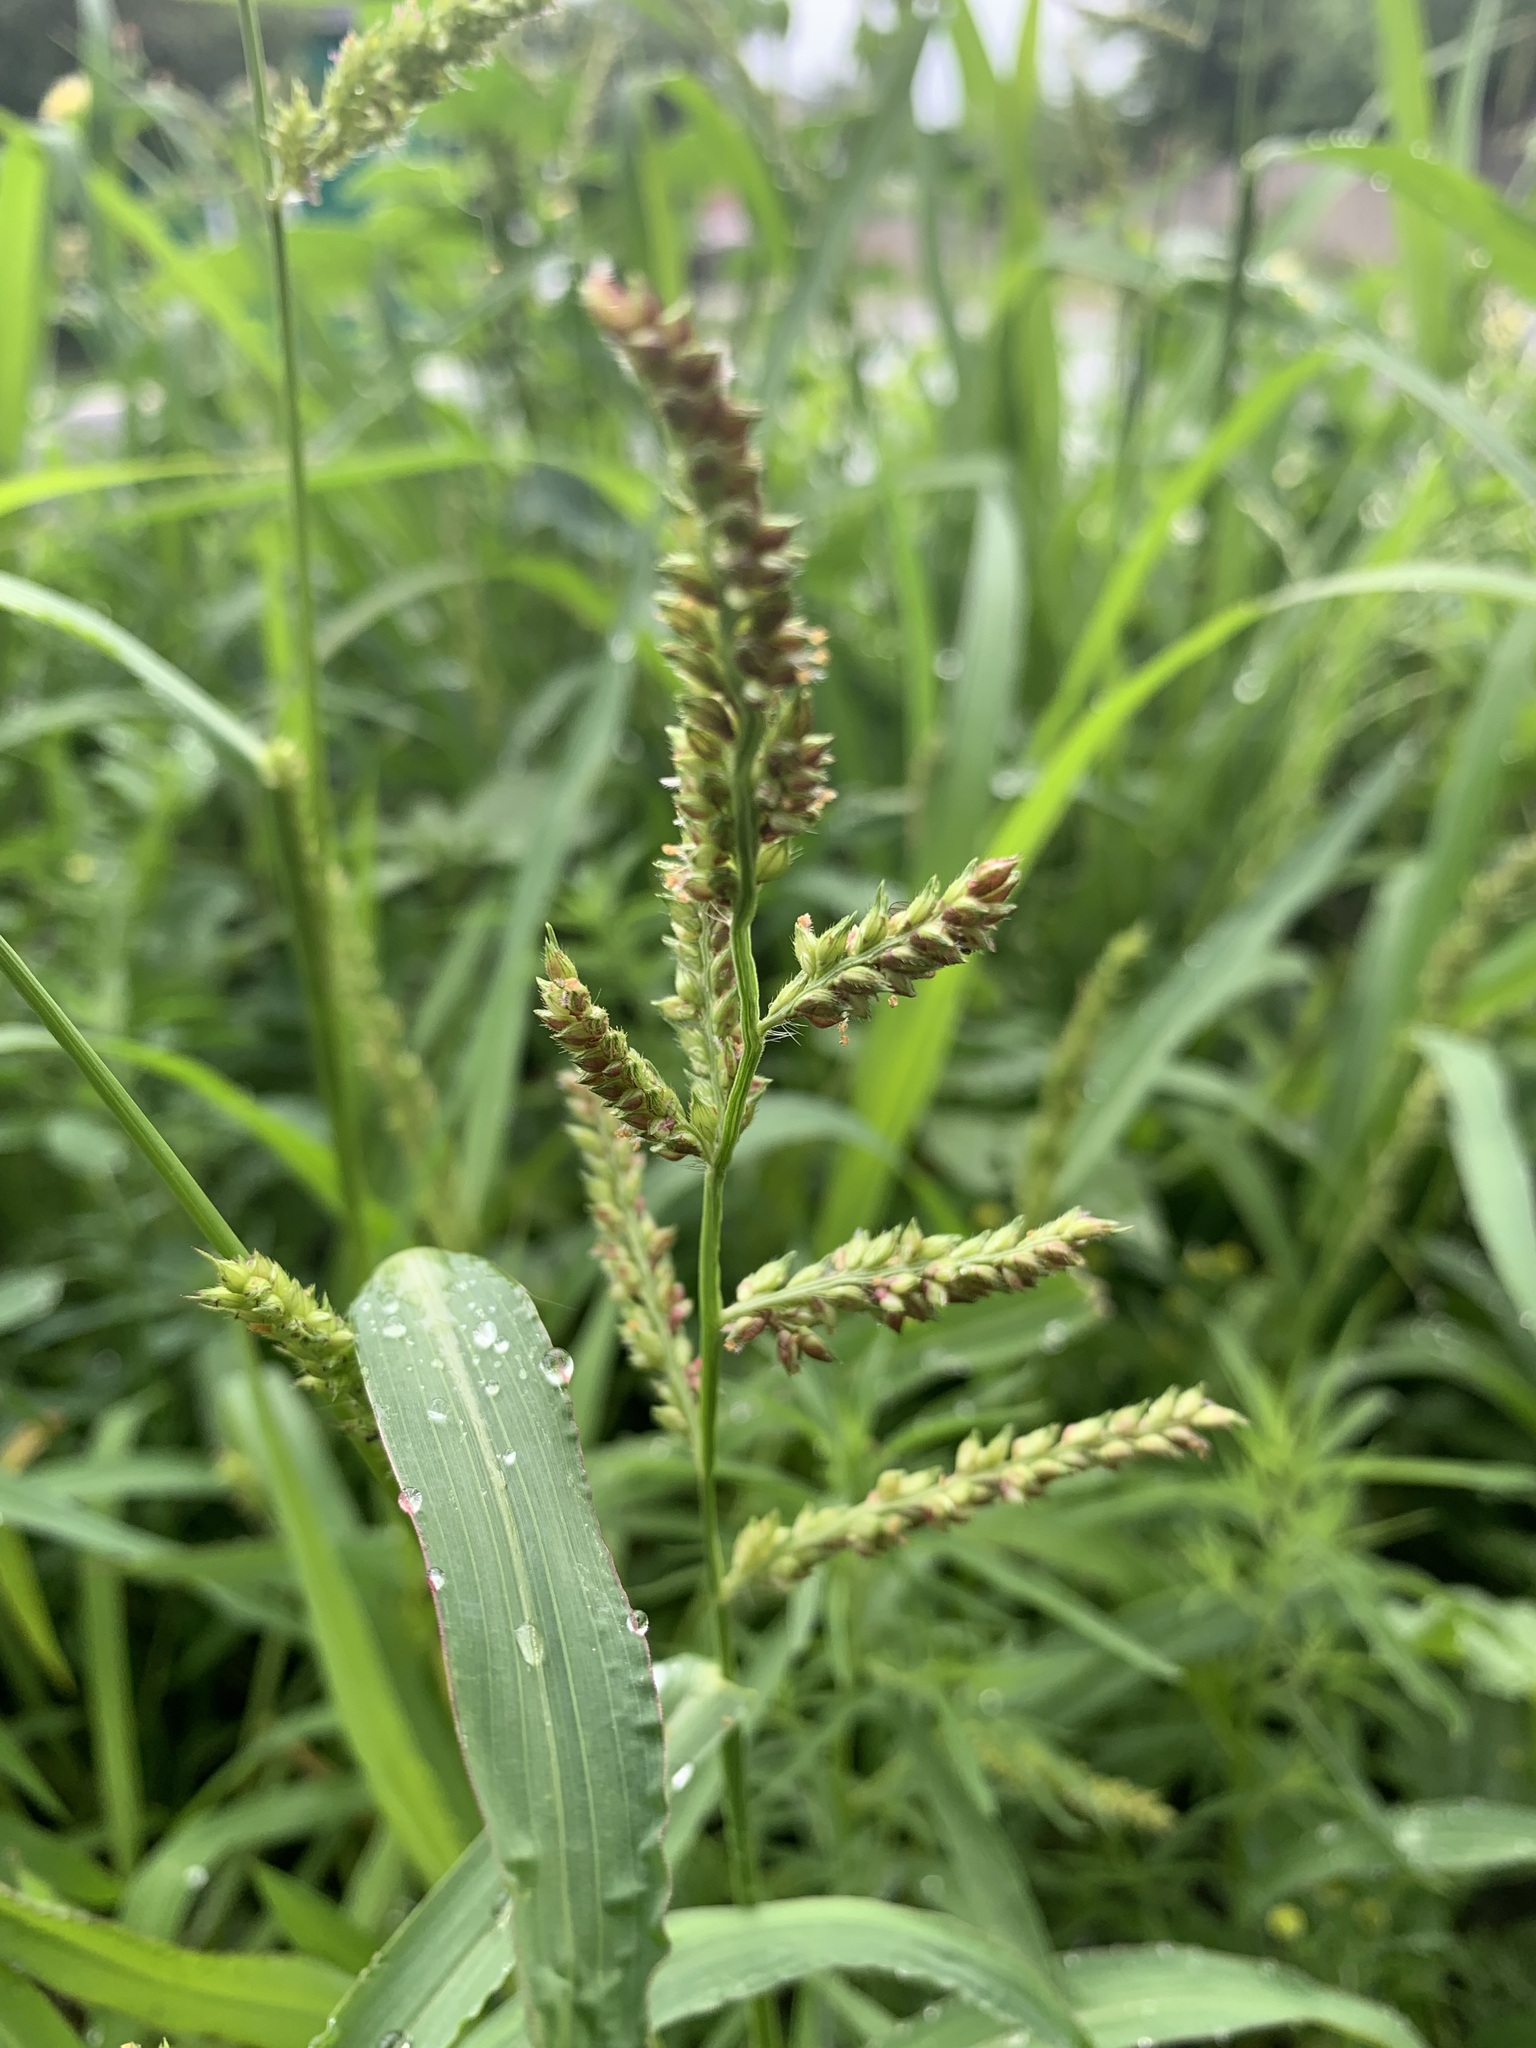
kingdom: Plantae
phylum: Tracheophyta
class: Liliopsida
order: Poales
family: Poaceae
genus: Echinochloa
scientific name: Echinochloa crus-galli
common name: Cockspur
